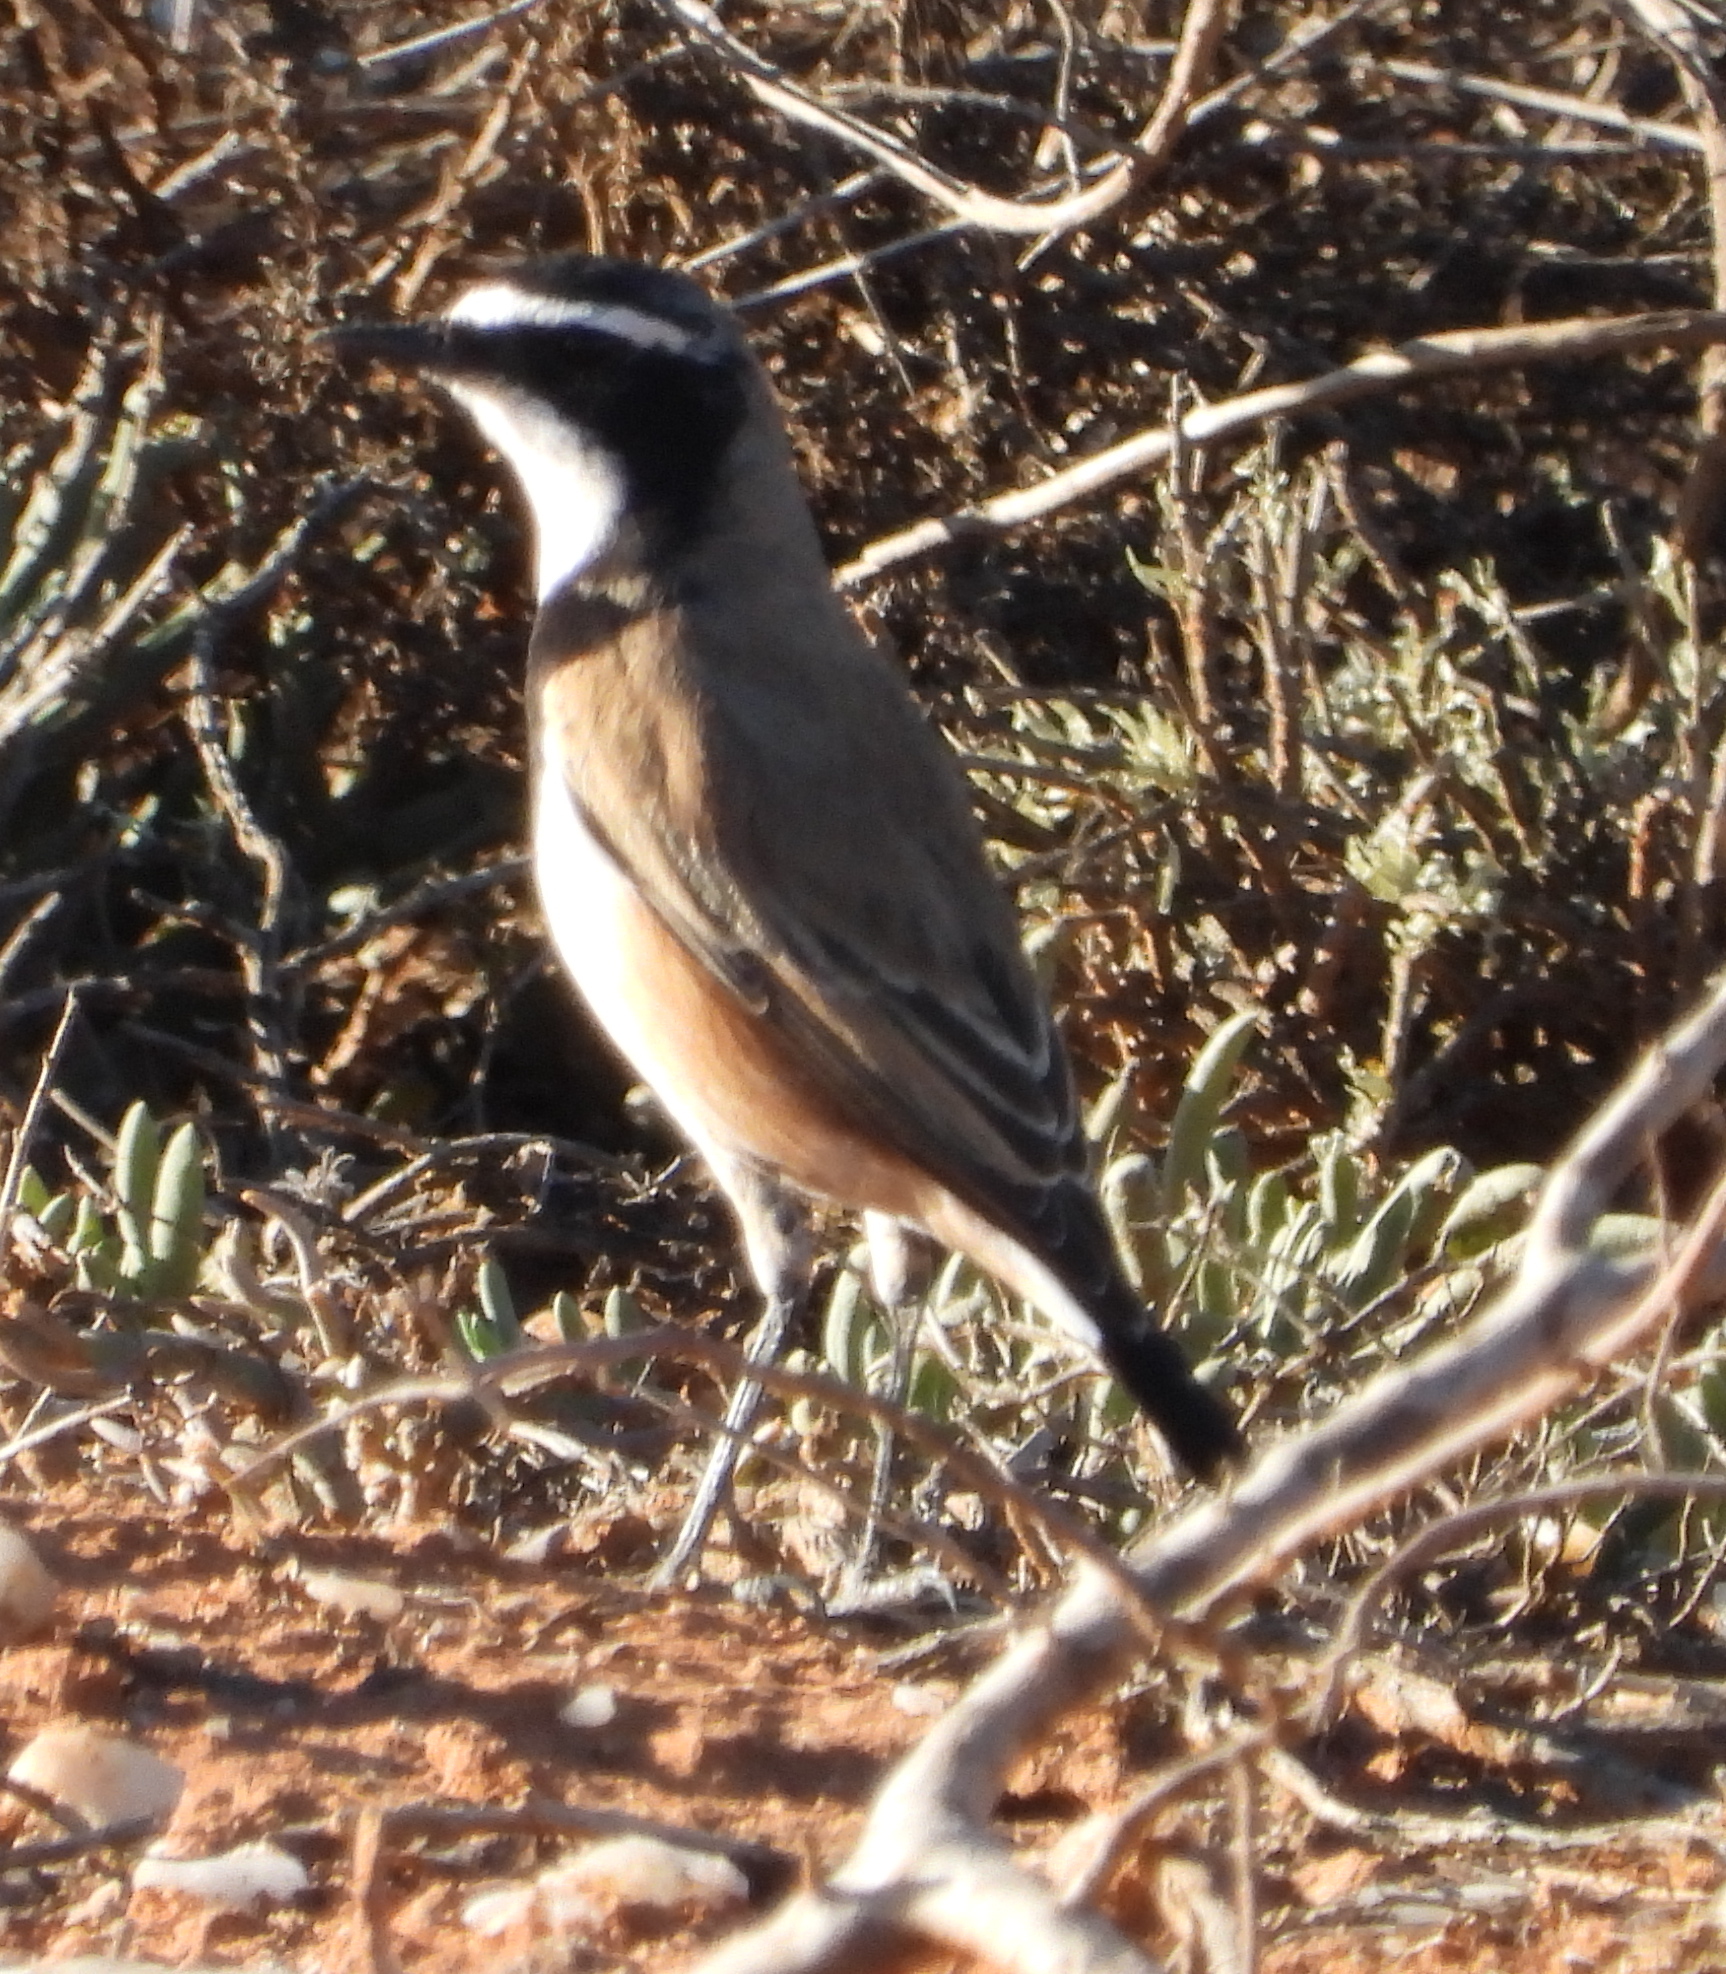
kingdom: Animalia
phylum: Chordata
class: Aves
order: Passeriformes
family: Muscicapidae
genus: Oenanthe
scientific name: Oenanthe pileata
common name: Capped wheatear
